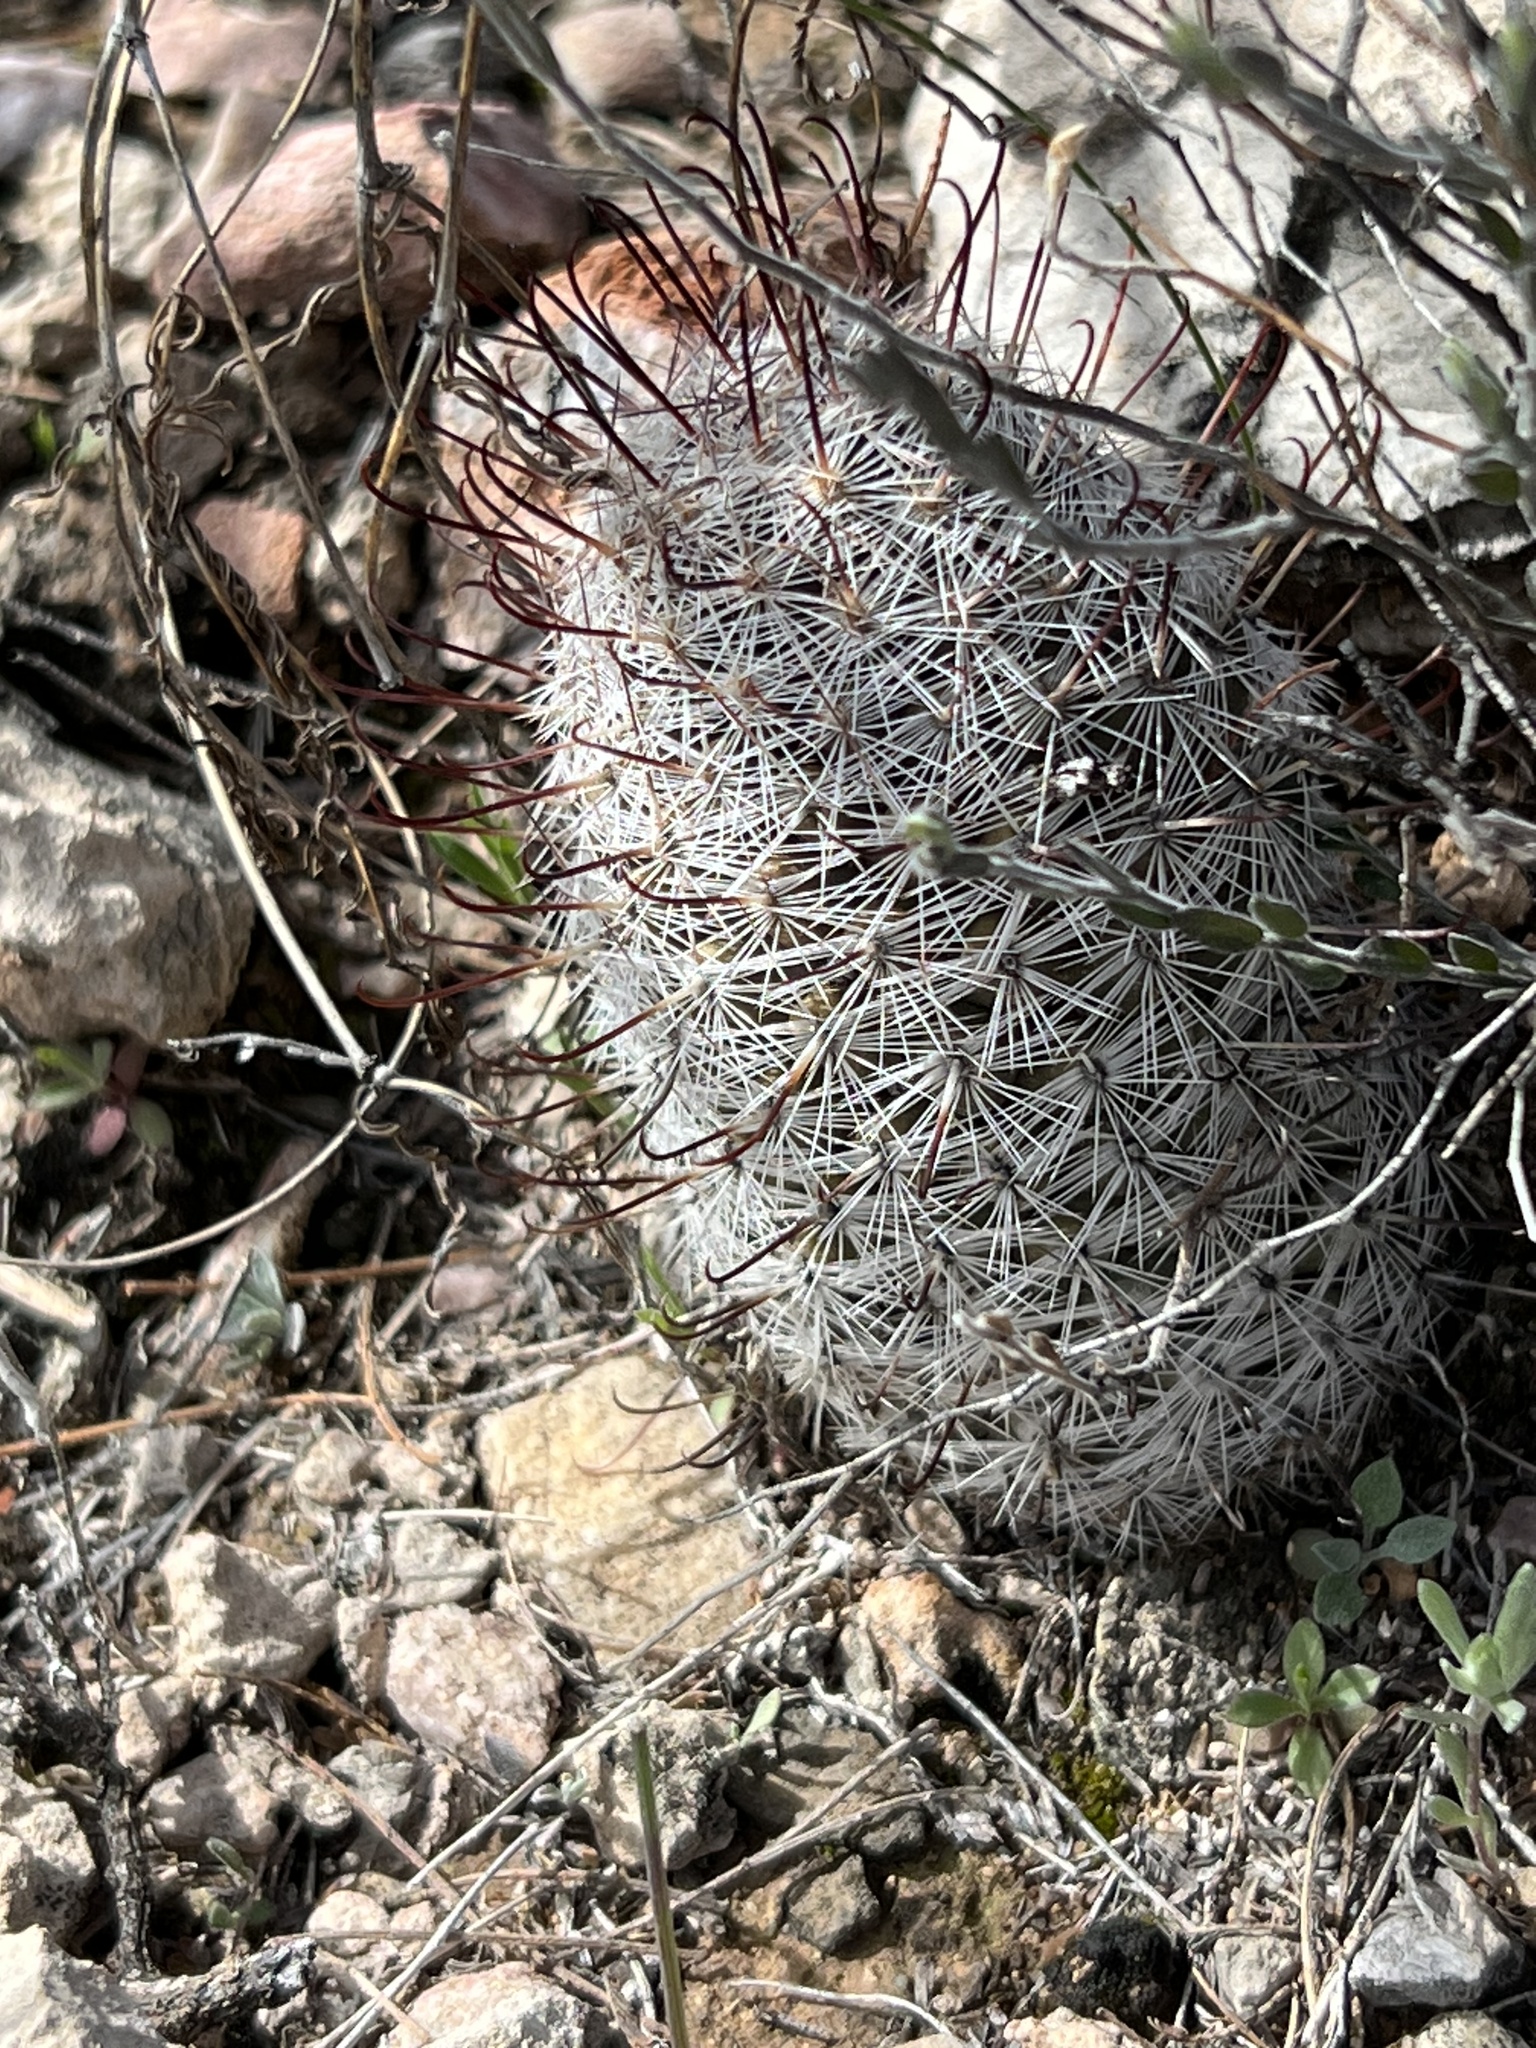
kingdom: Plantae
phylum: Tracheophyta
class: Magnoliopsida
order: Caryophyllales
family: Cactaceae
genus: Cochemiea
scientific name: Cochemiea grahamii
